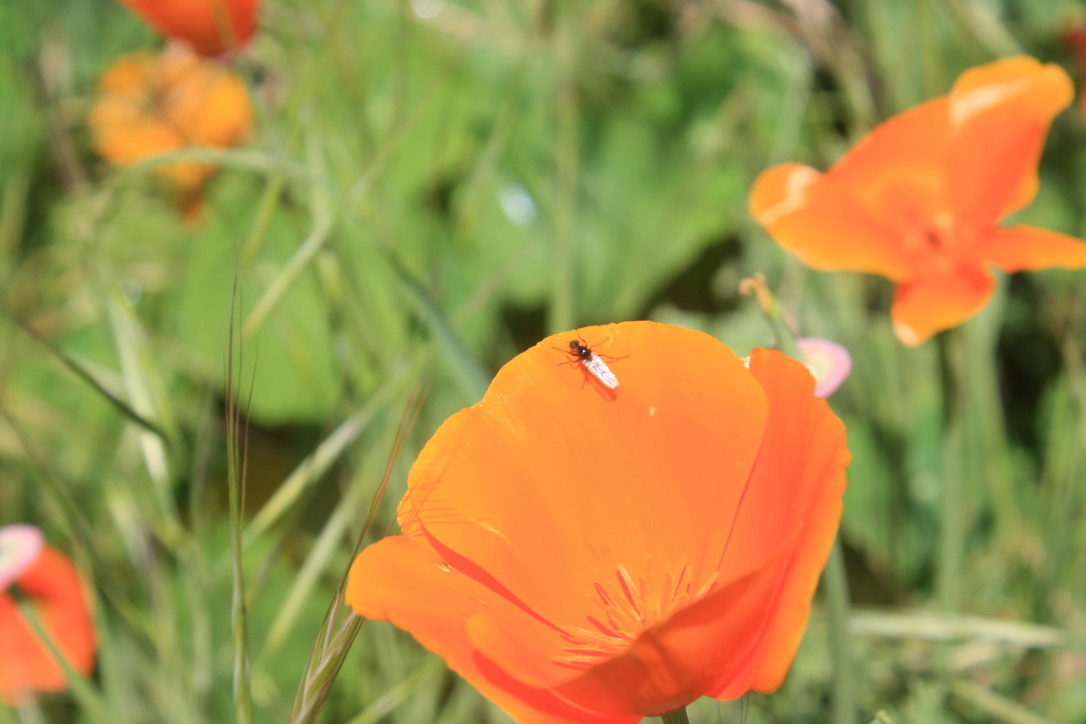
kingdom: Plantae
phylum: Tracheophyta
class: Magnoliopsida
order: Ranunculales
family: Papaveraceae
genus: Eschscholzia
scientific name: Eschscholzia californica
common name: California poppy
